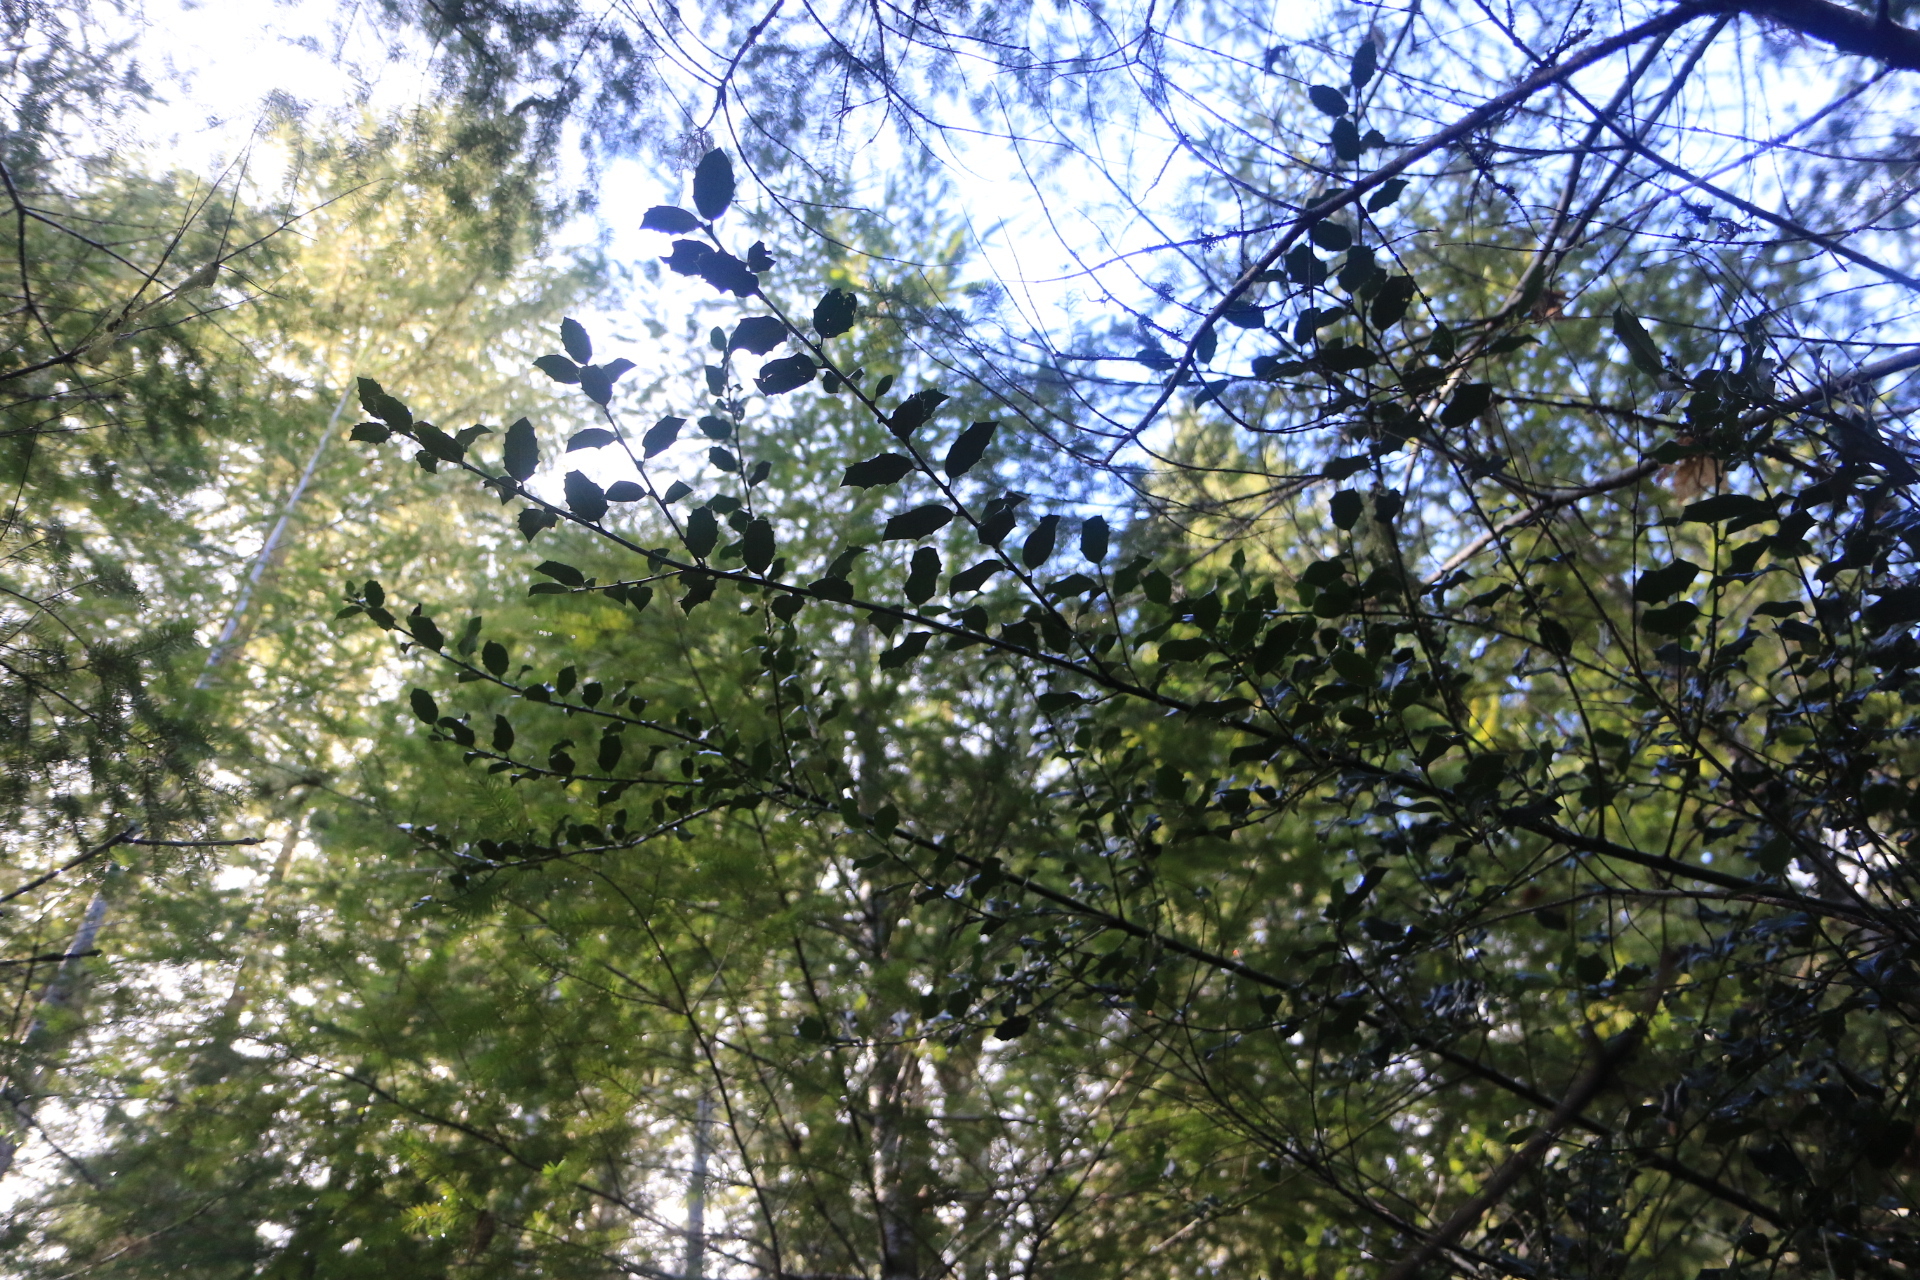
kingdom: Plantae
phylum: Tracheophyta
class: Magnoliopsida
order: Aquifoliales
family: Aquifoliaceae
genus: Ilex
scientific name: Ilex aquifolium
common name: English holly
